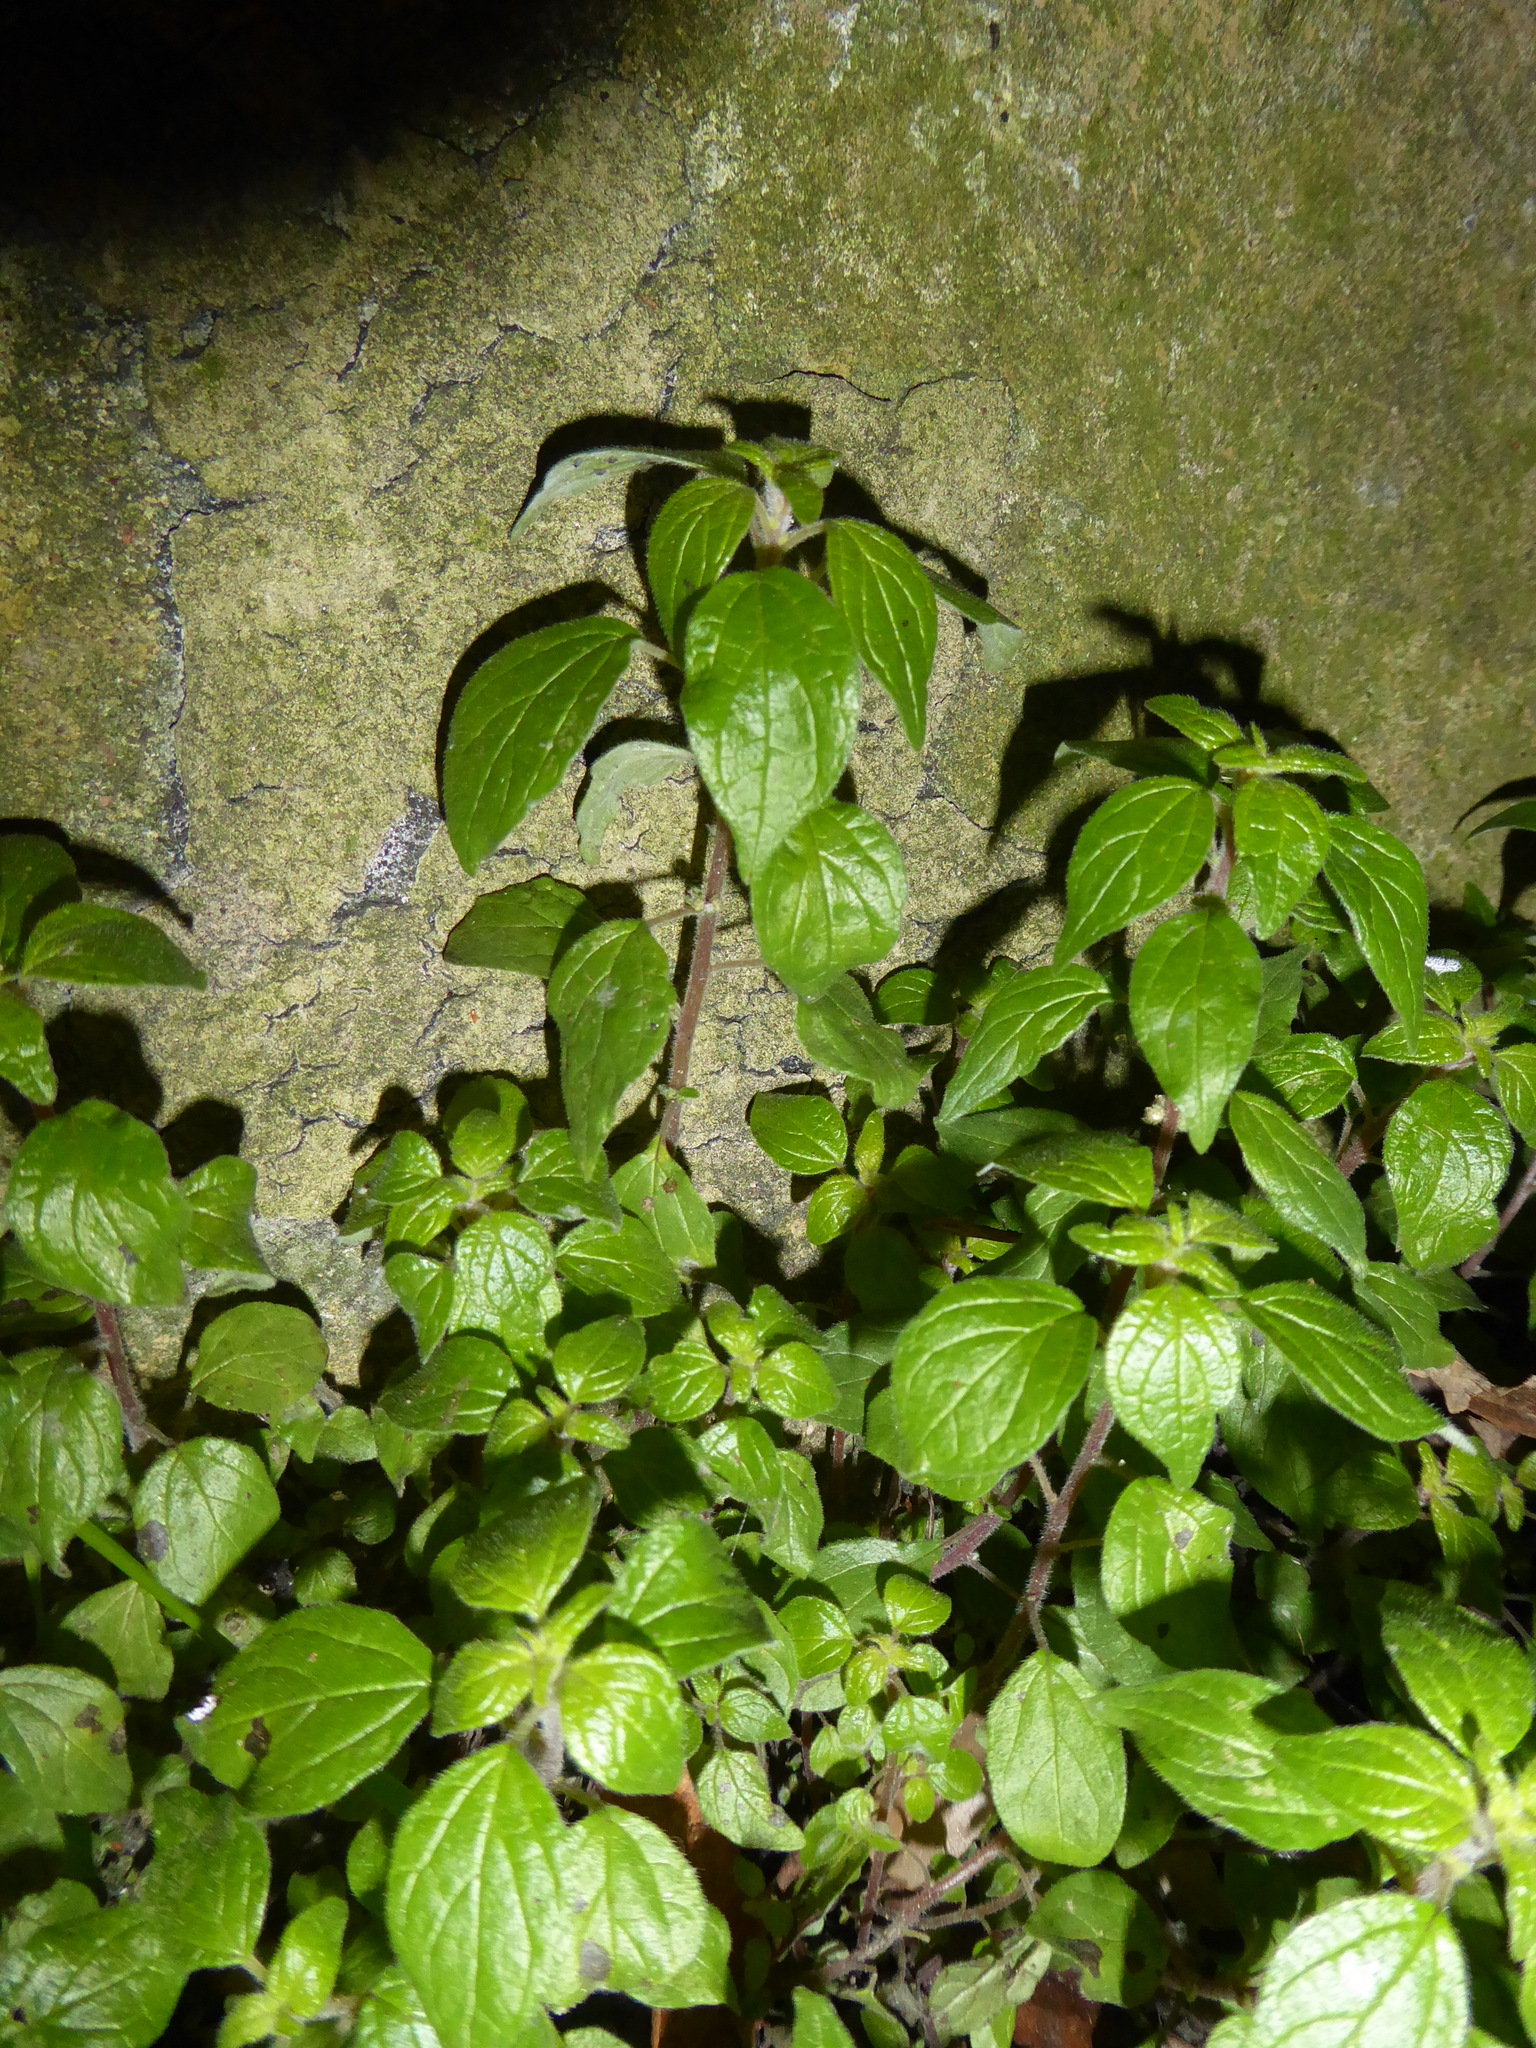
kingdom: Plantae
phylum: Tracheophyta
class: Magnoliopsida
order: Rosales
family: Urticaceae
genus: Parietaria
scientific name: Parietaria judaica
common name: Pellitory-of-the-wall
